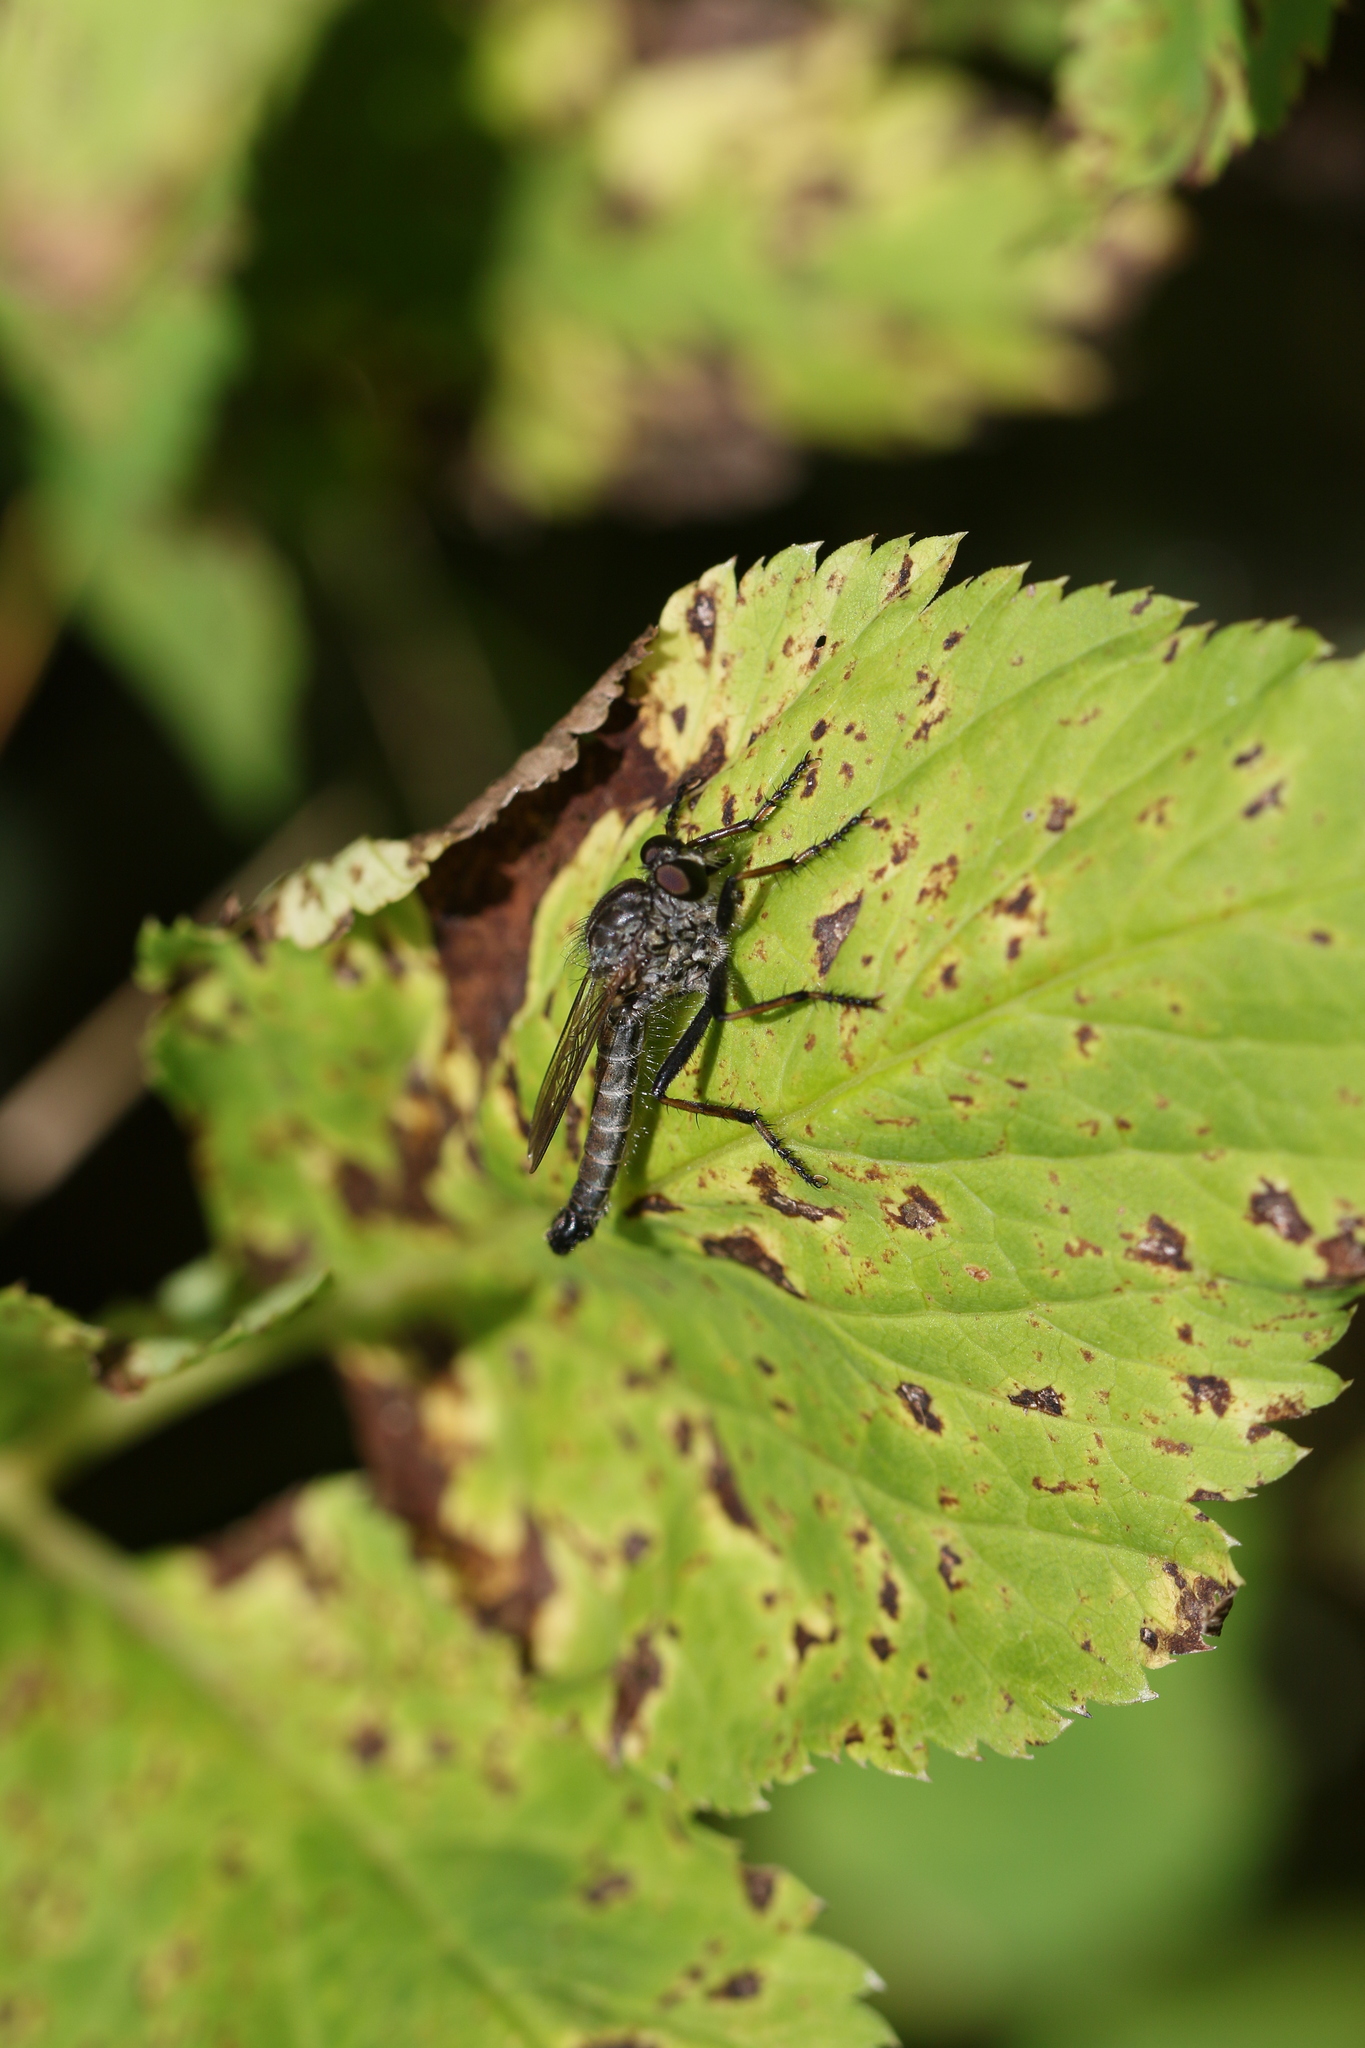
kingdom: Animalia
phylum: Arthropoda
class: Insecta
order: Diptera
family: Asilidae
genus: Machimus
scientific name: Machimus sadyates
